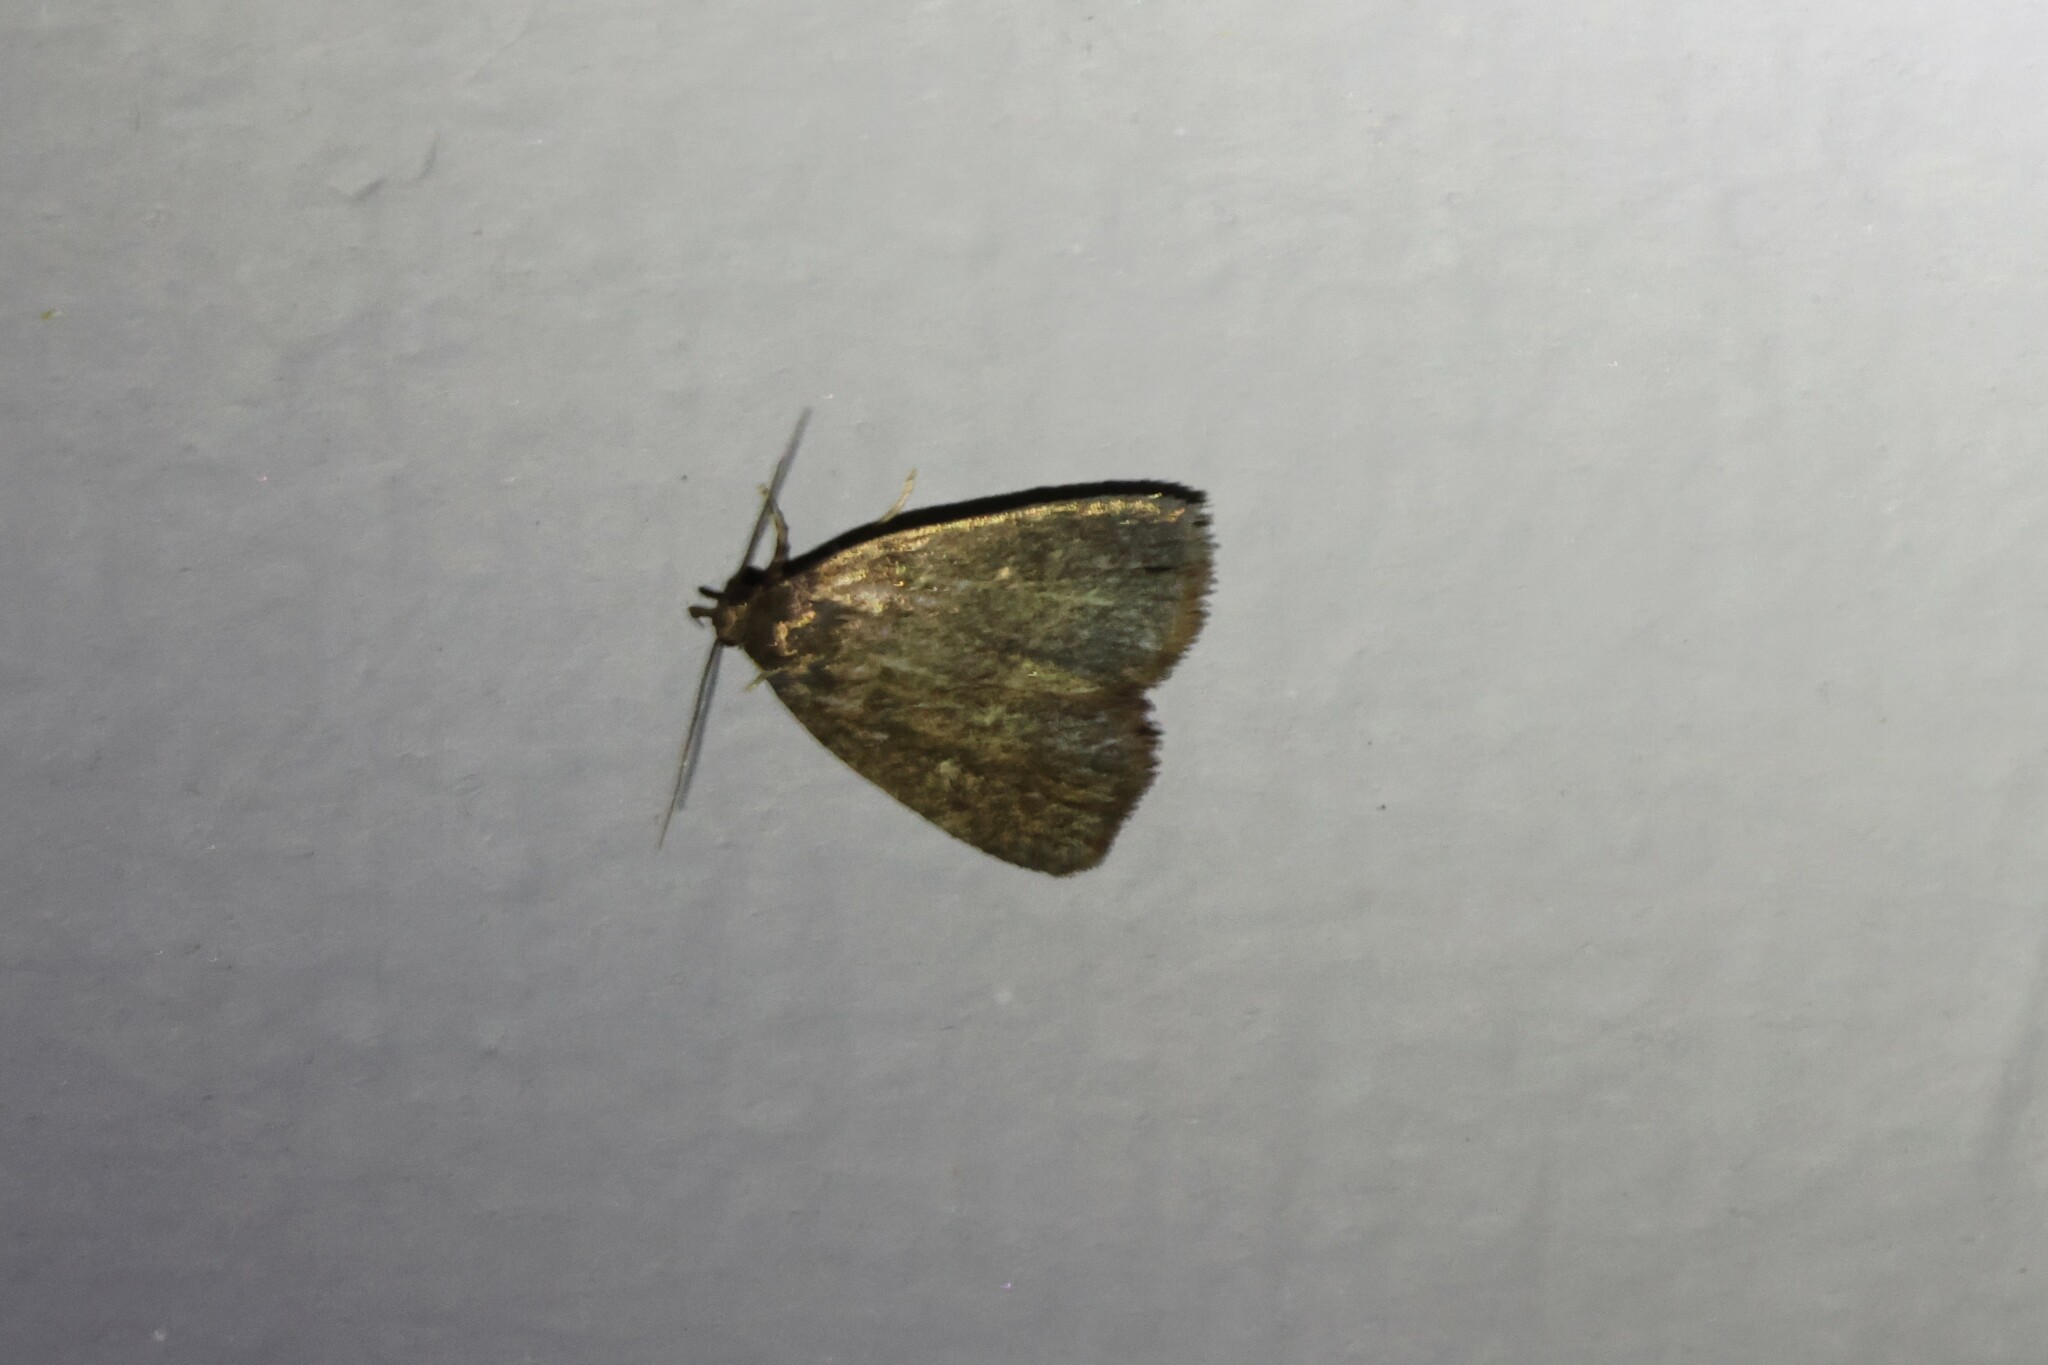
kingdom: Animalia
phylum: Arthropoda
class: Insecta
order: Lepidoptera
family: Erebidae
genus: Idia
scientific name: Idia rotundalis
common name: Rotund idia moth
